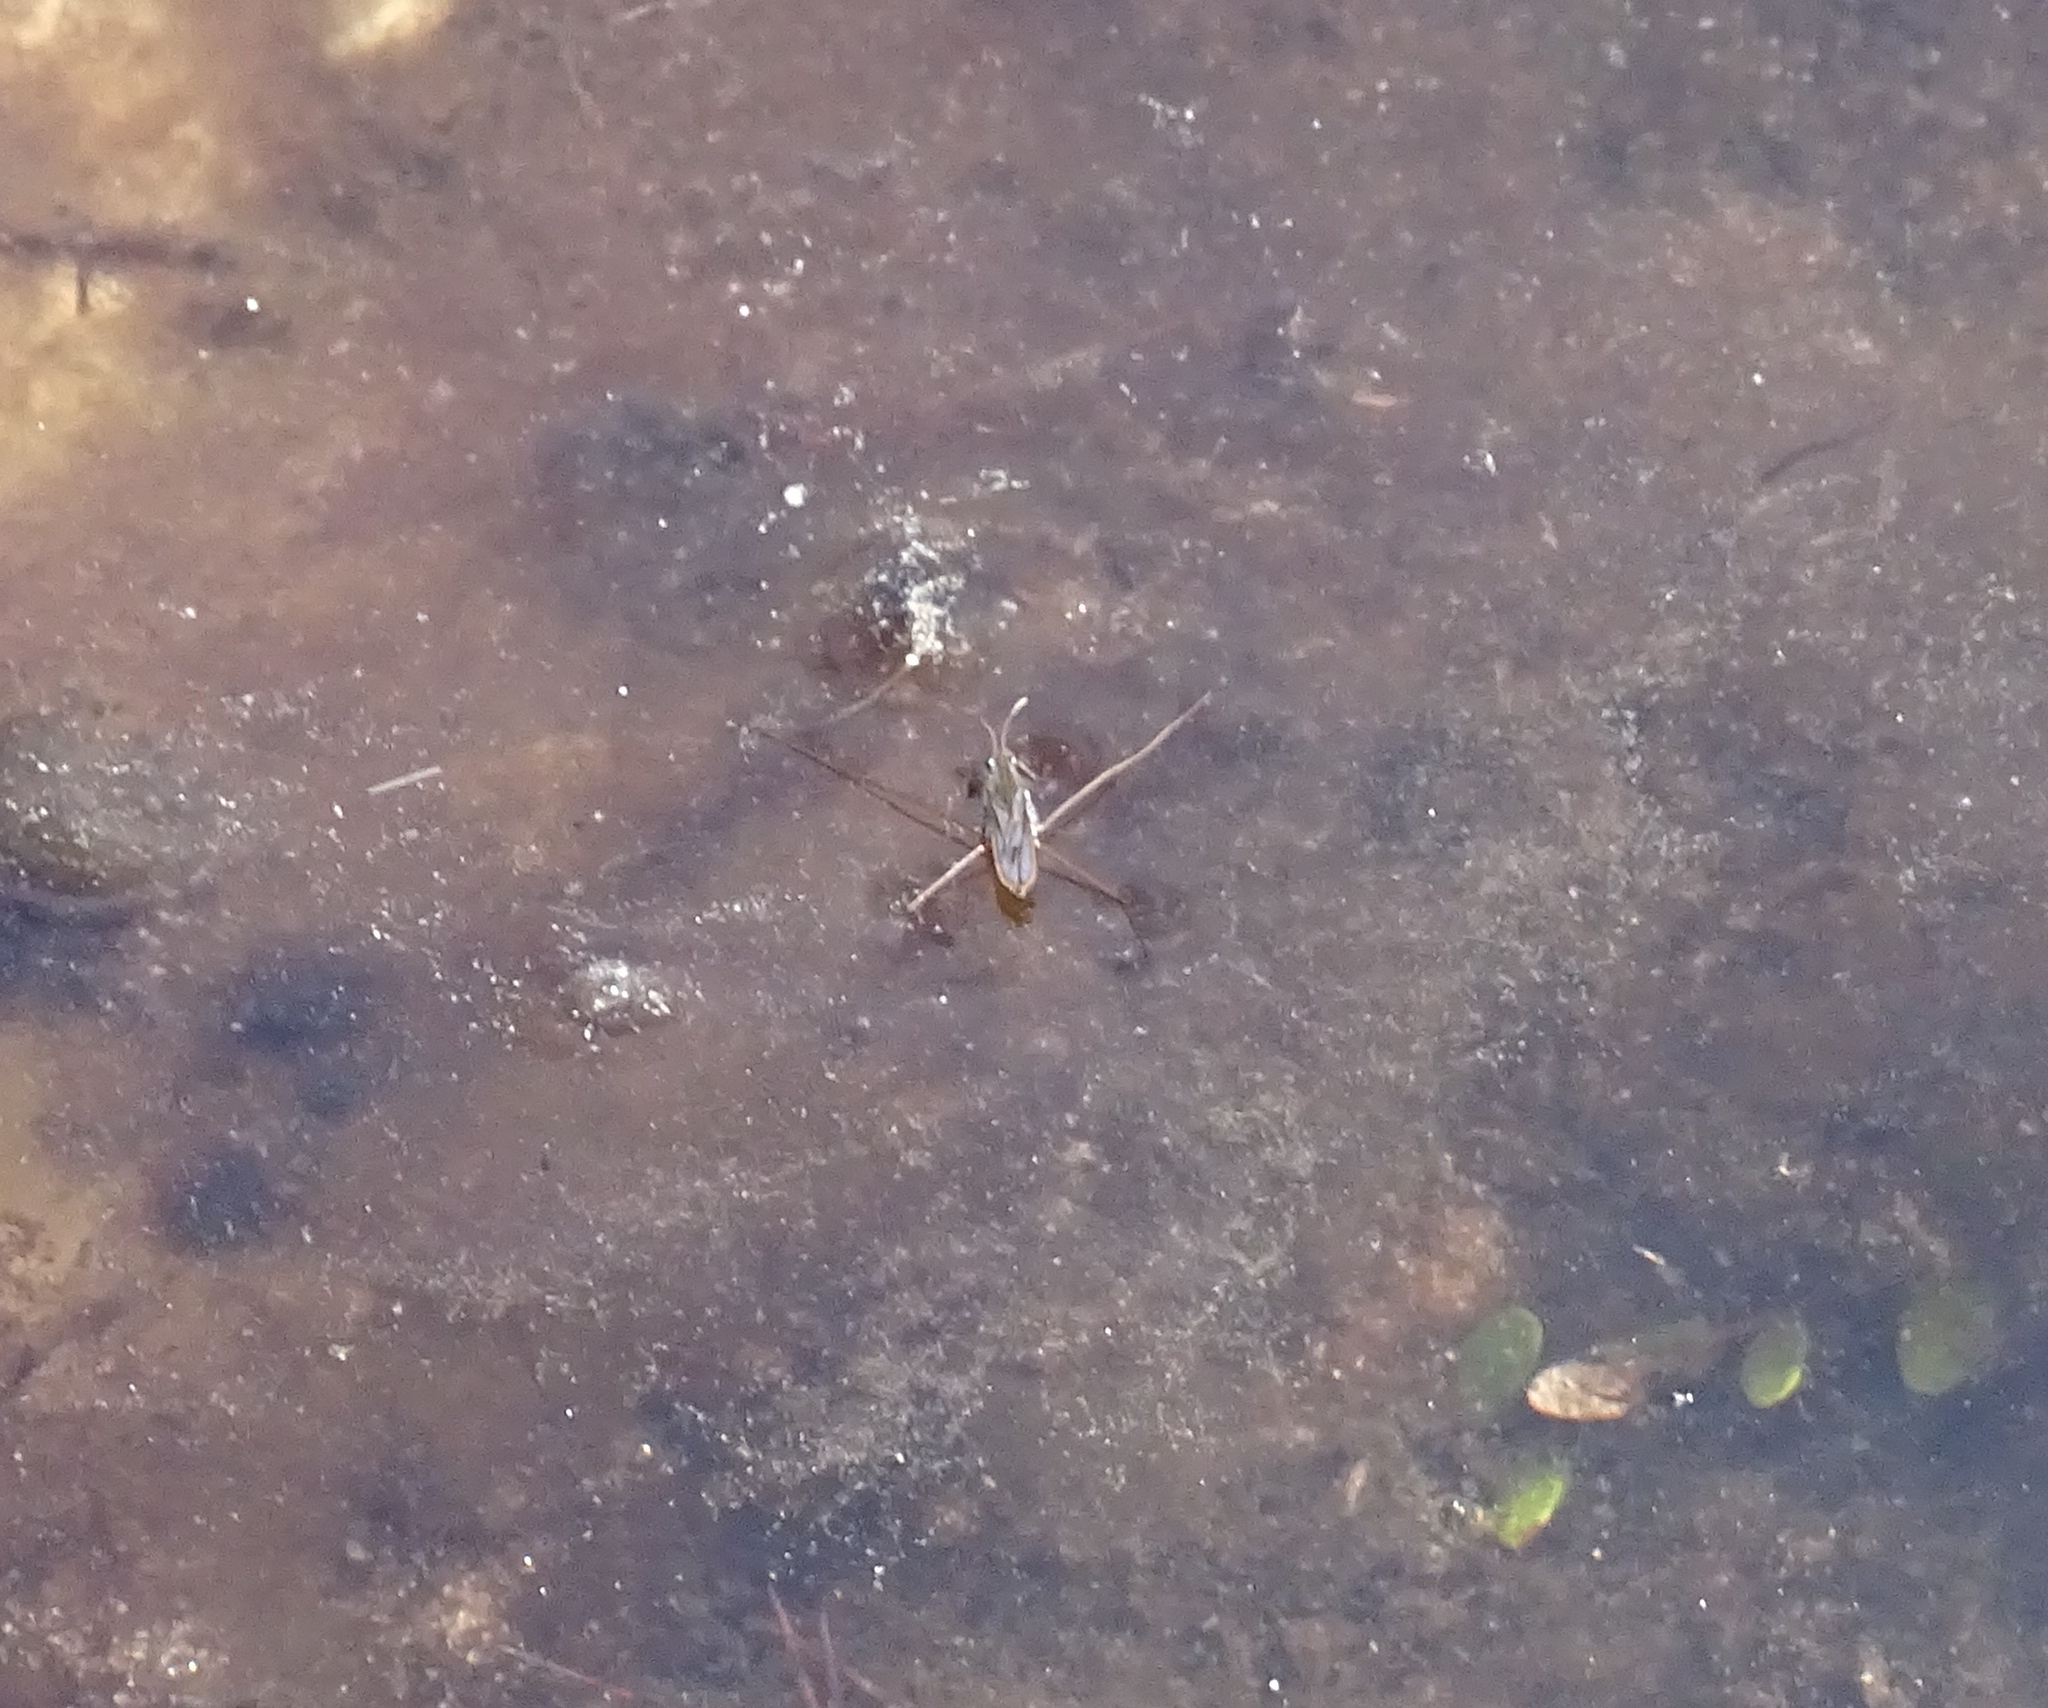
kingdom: Animalia
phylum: Arthropoda
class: Insecta
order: Hemiptera
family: Gerridae
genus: Gerris
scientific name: Gerris
